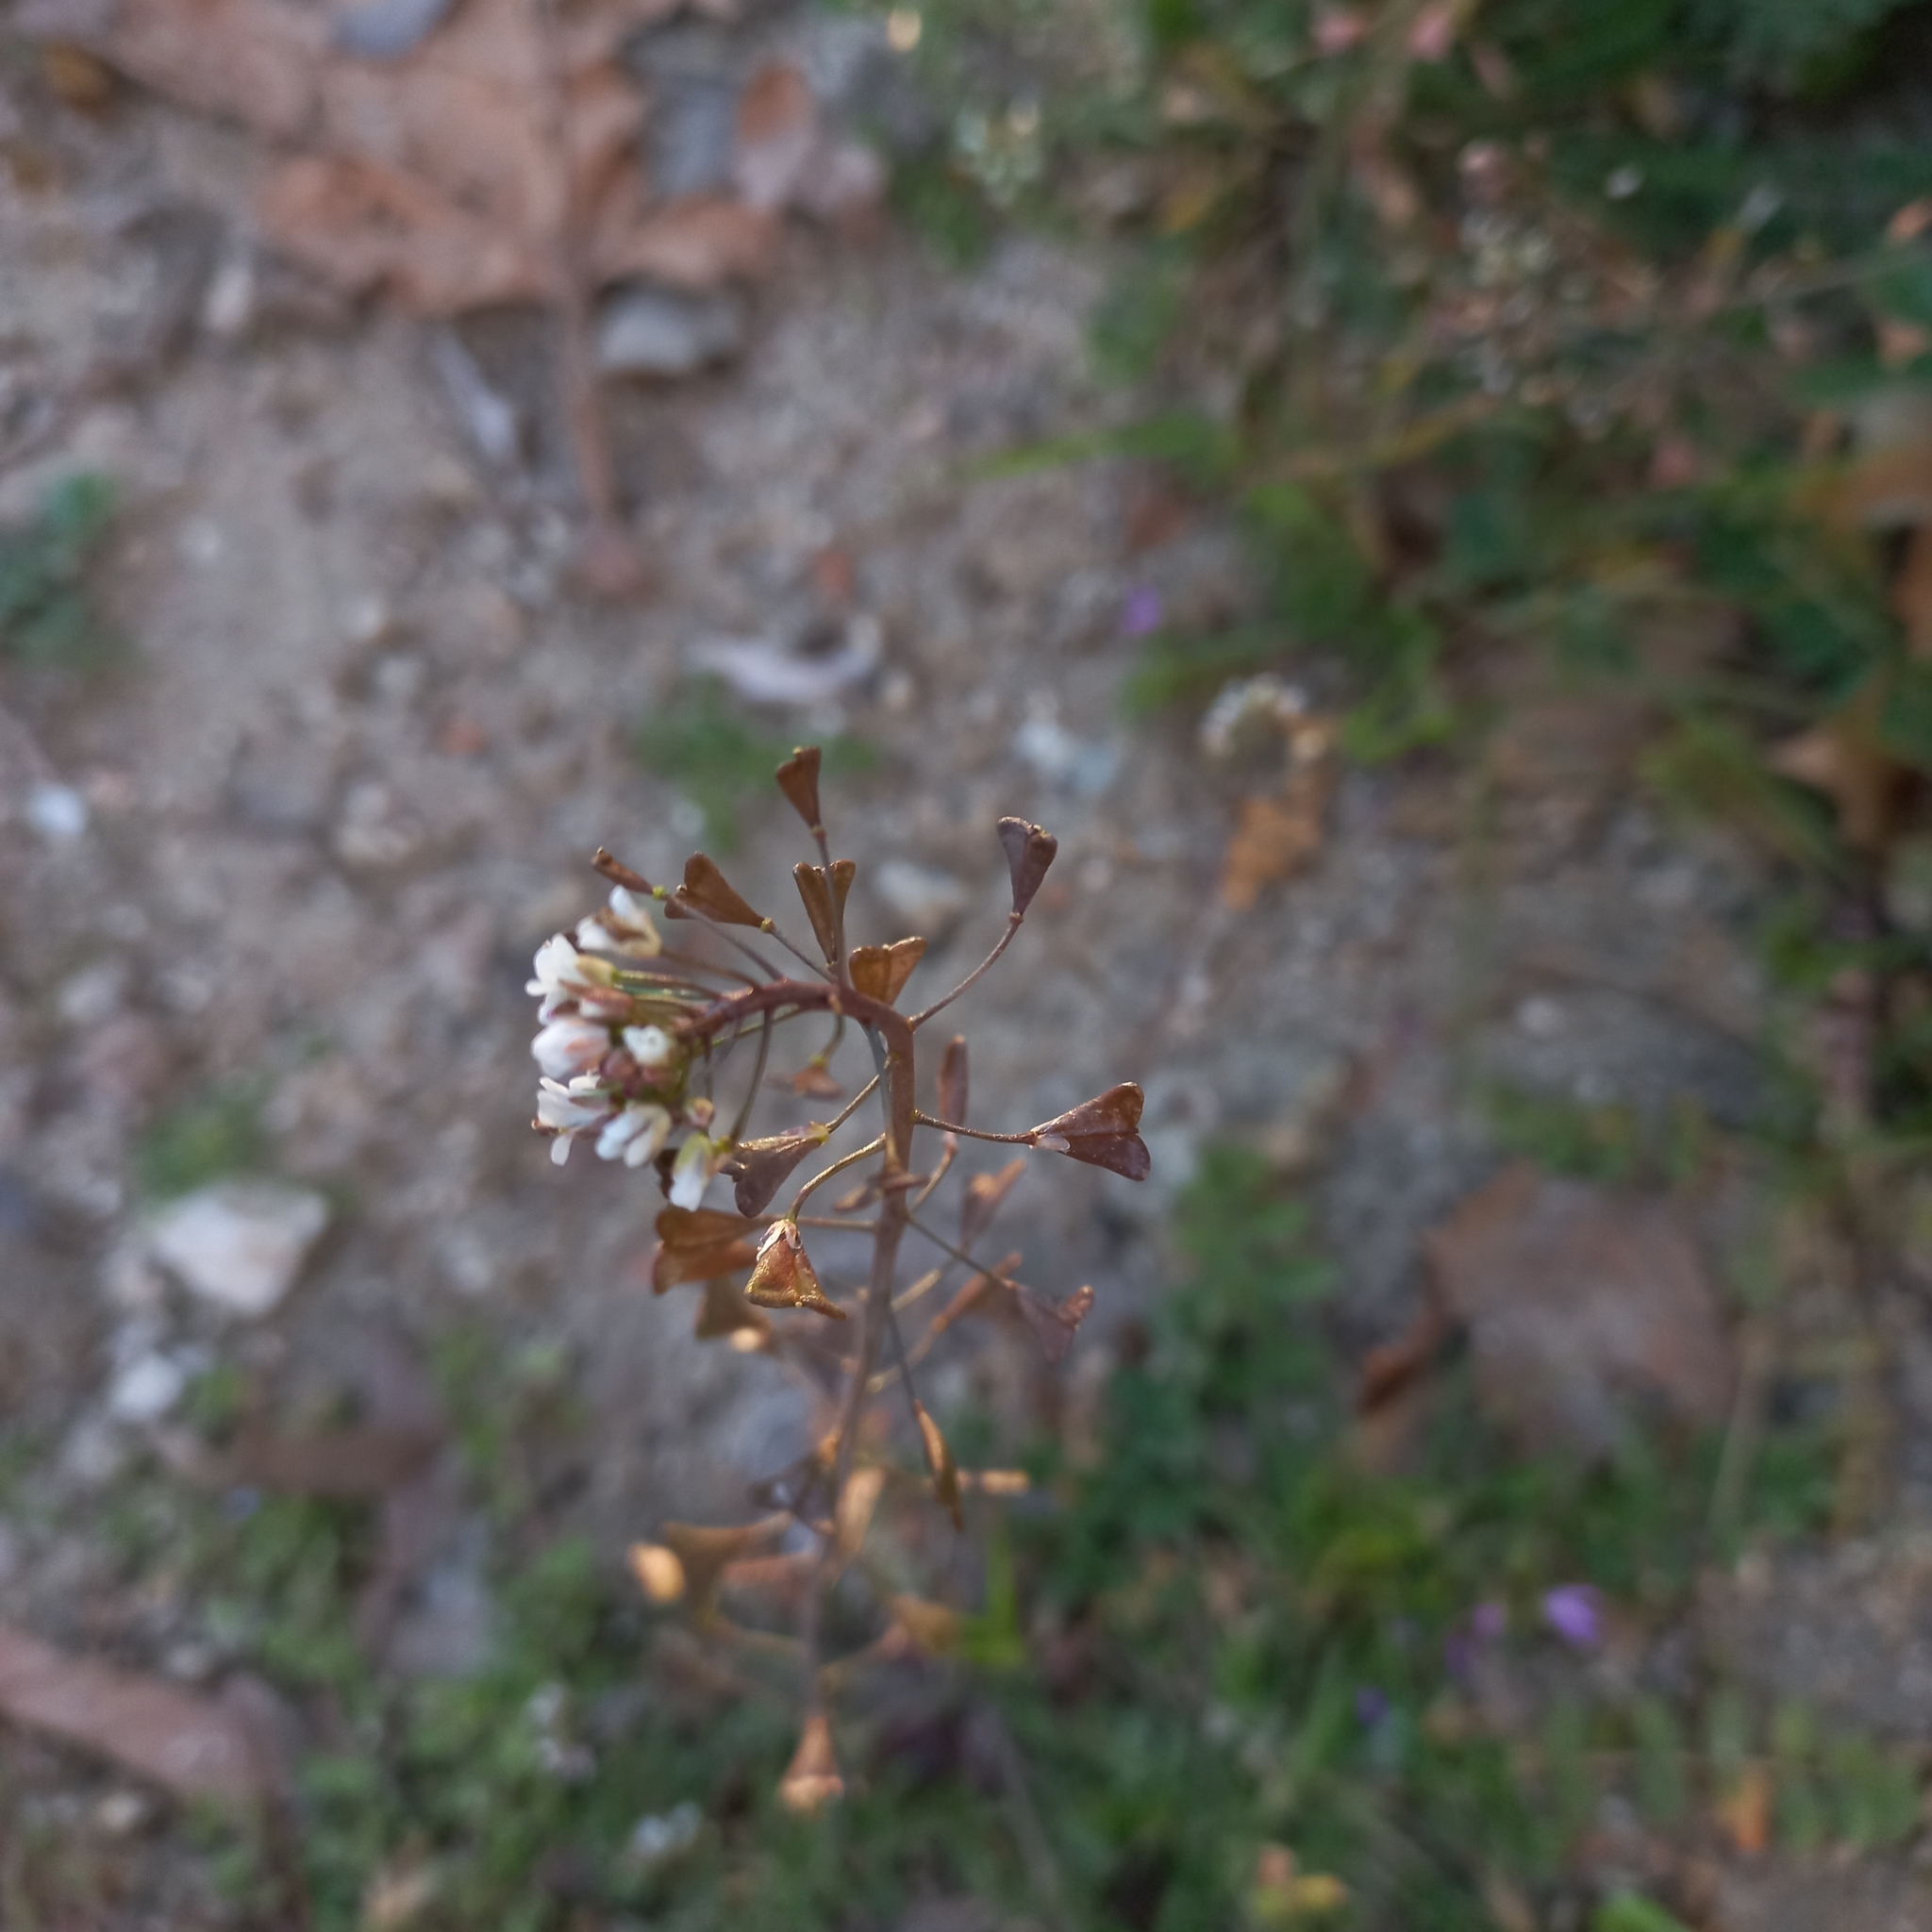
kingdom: Plantae
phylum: Tracheophyta
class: Magnoliopsida
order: Brassicales
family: Brassicaceae
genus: Capsella
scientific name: Capsella bursa-pastoris
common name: Shepherd's purse
